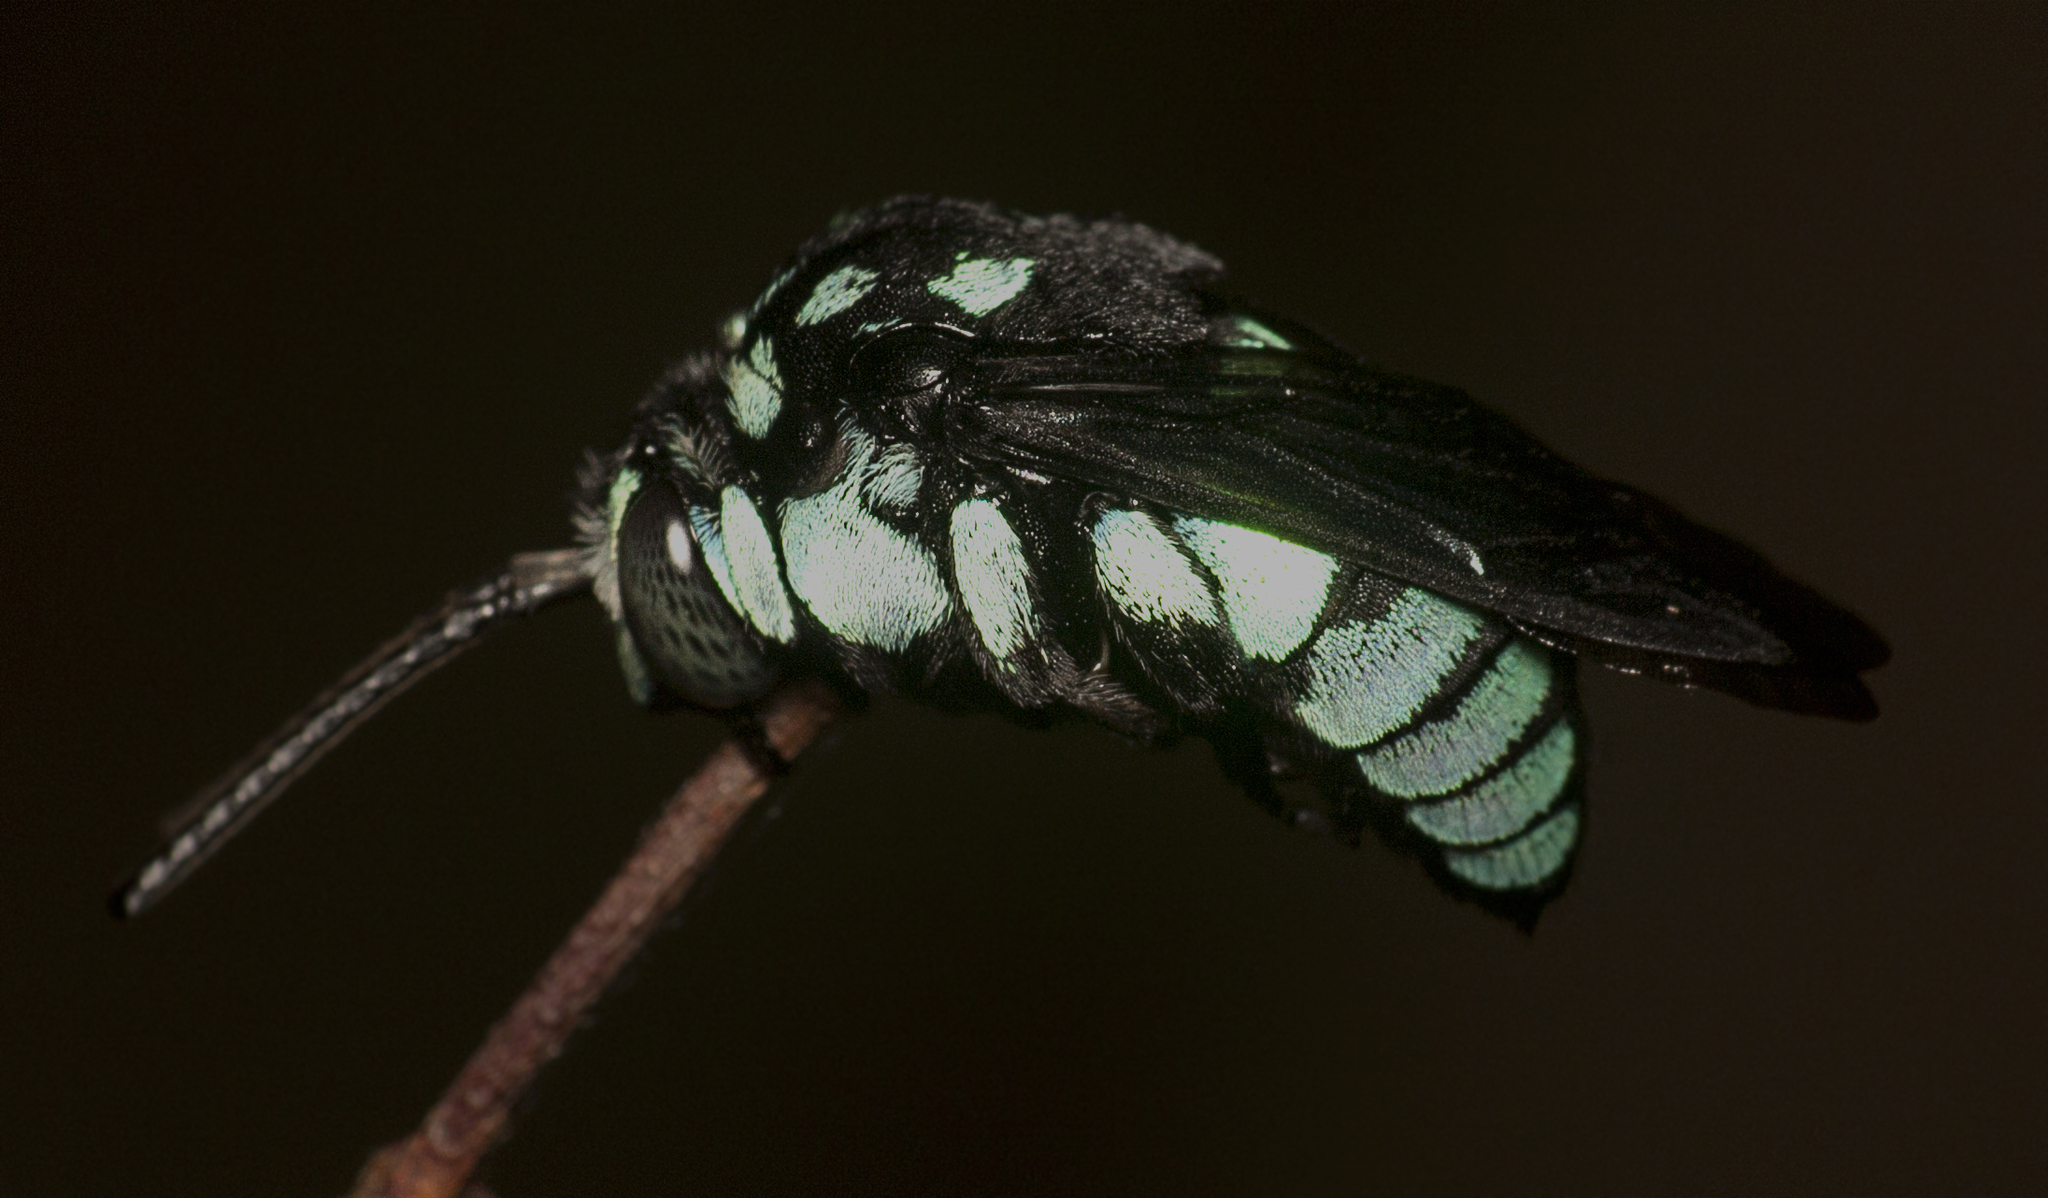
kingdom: Animalia
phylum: Arthropoda
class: Insecta
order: Hymenoptera
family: Apidae
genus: Thyreus
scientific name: Thyreus nitidulus
